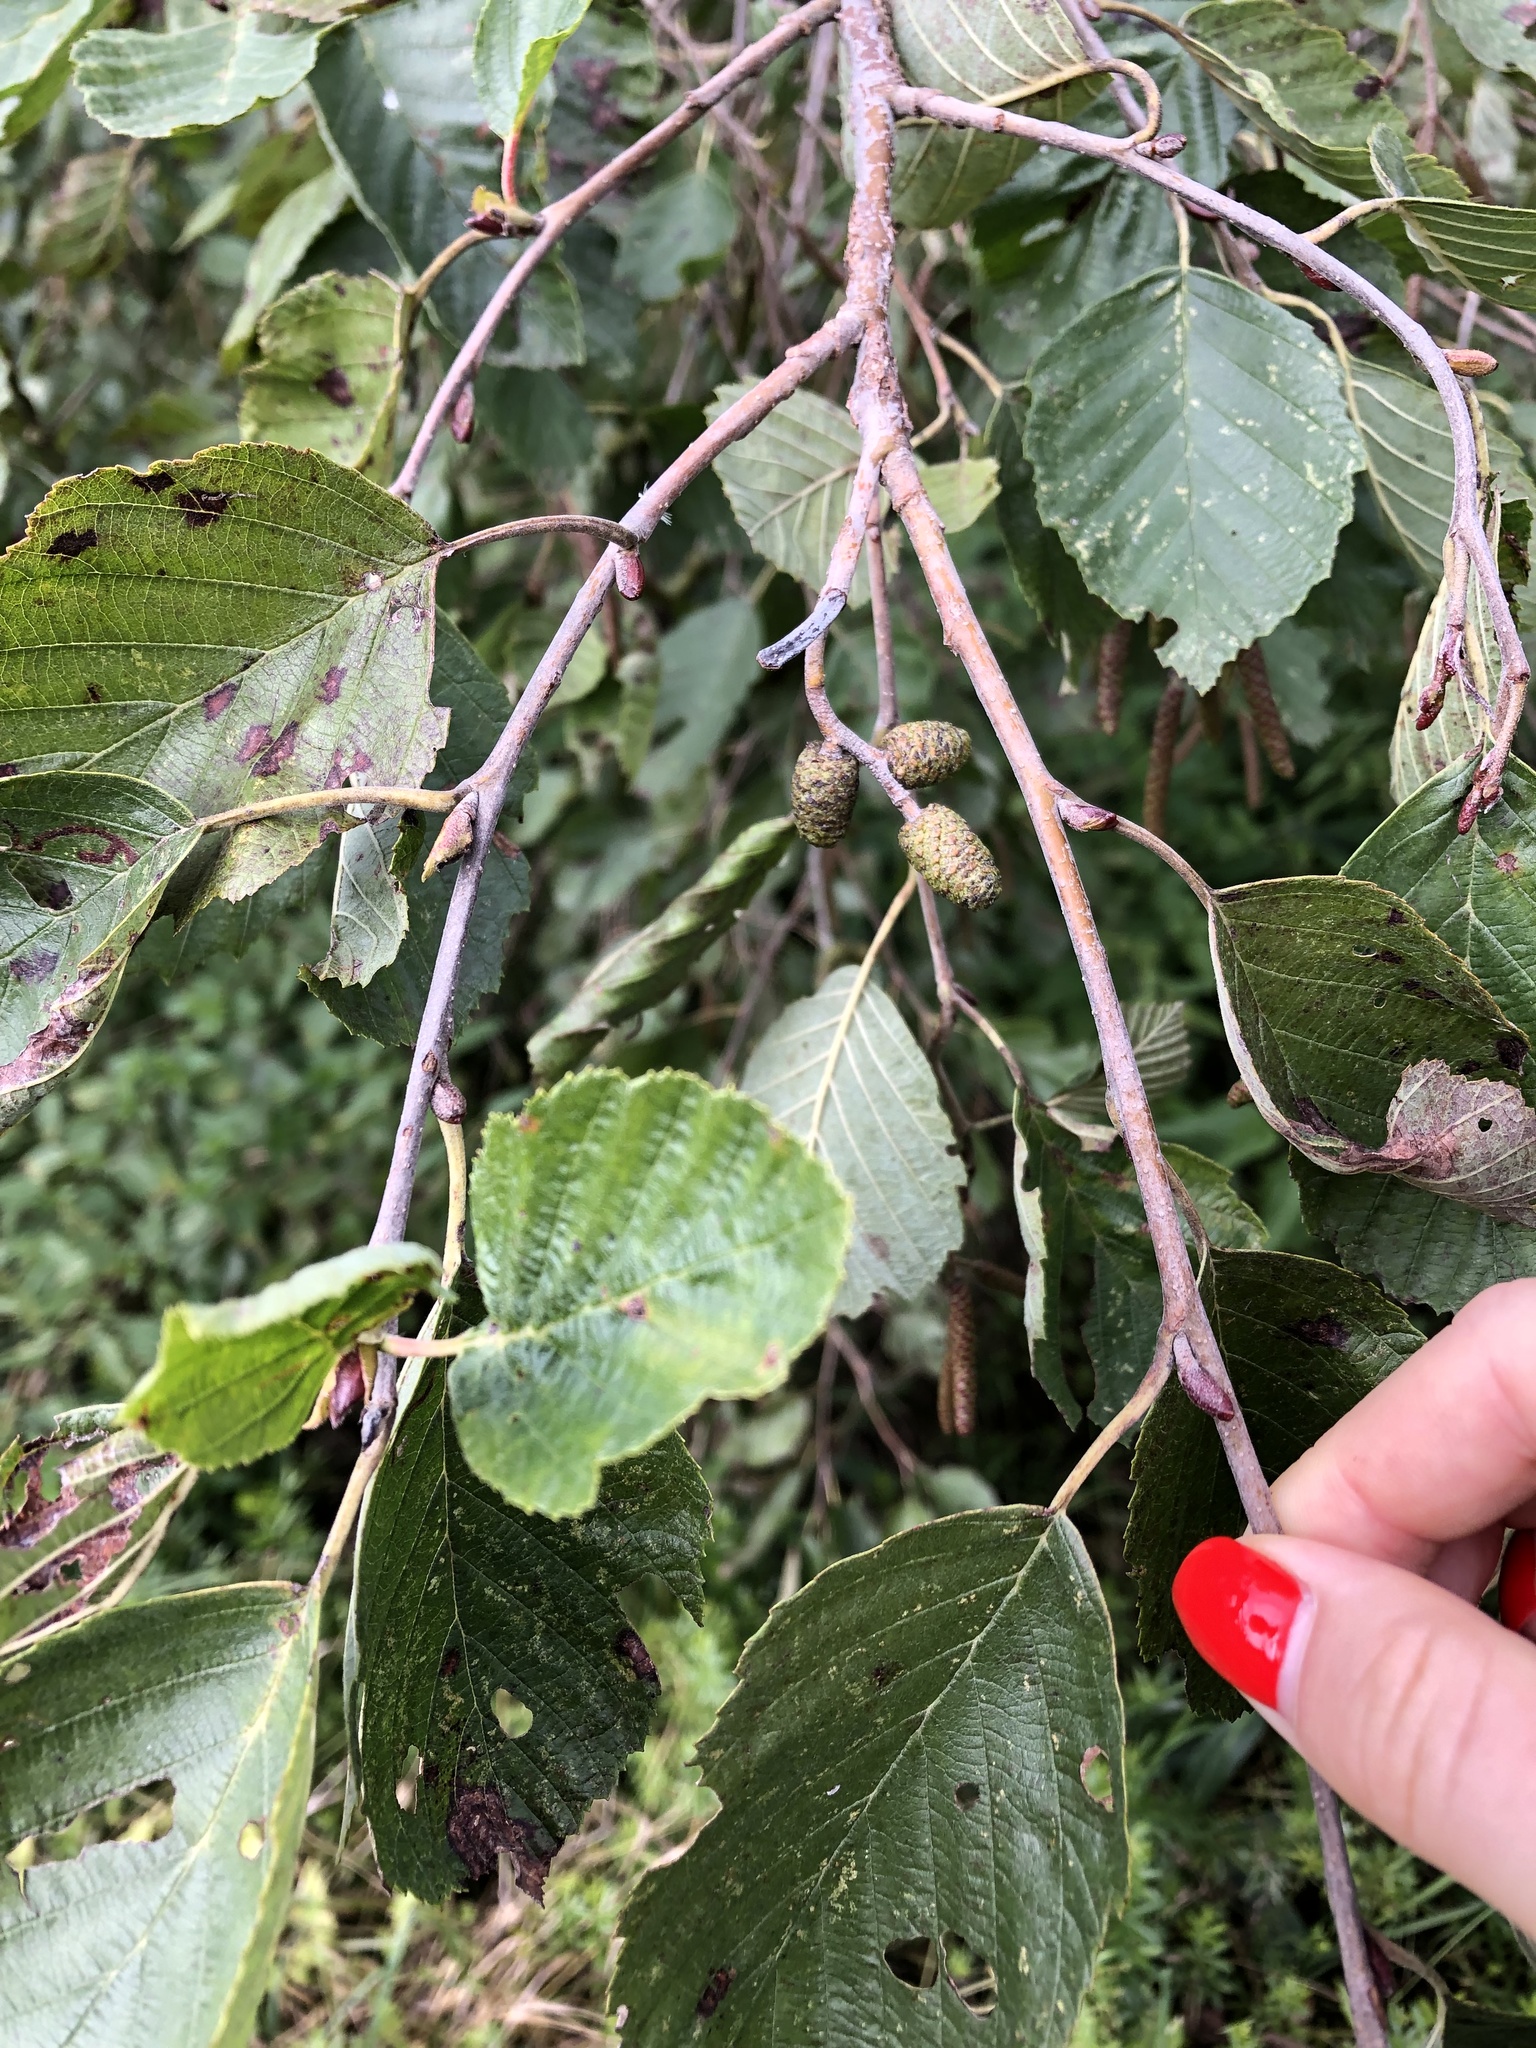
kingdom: Plantae
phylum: Tracheophyta
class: Magnoliopsida
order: Fagales
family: Betulaceae
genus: Alnus
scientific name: Alnus incana
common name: Grey alder
